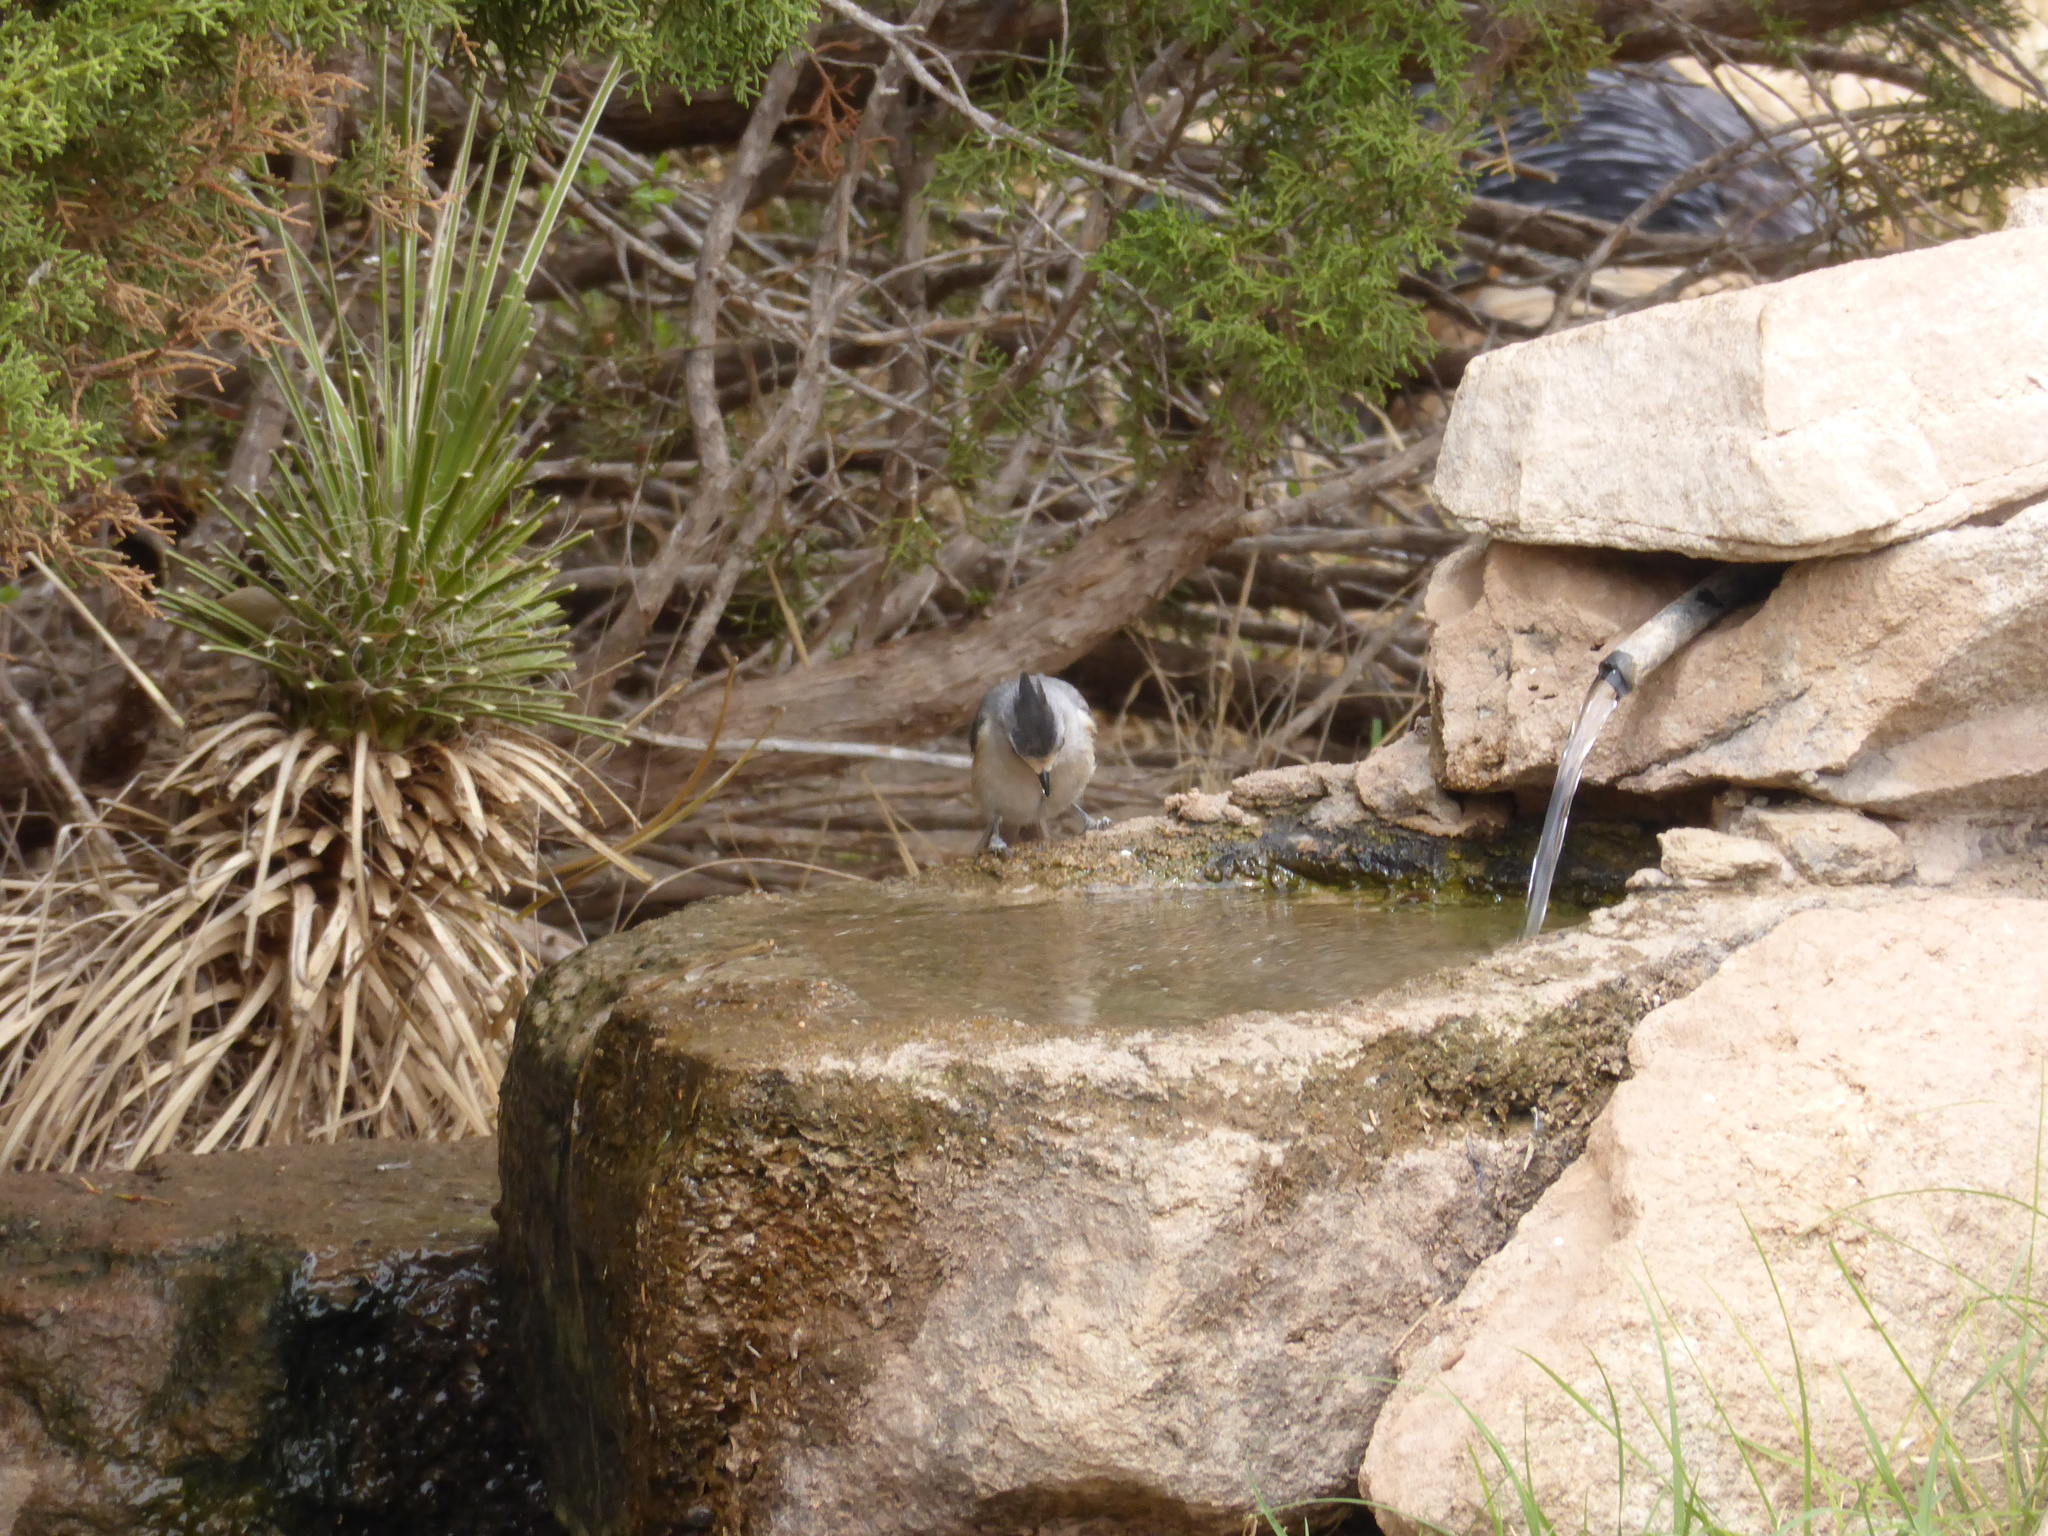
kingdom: Animalia
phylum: Chordata
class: Aves
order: Passeriformes
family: Paridae
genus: Baeolophus
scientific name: Baeolophus atricristatus
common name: Black-crested titmouse
